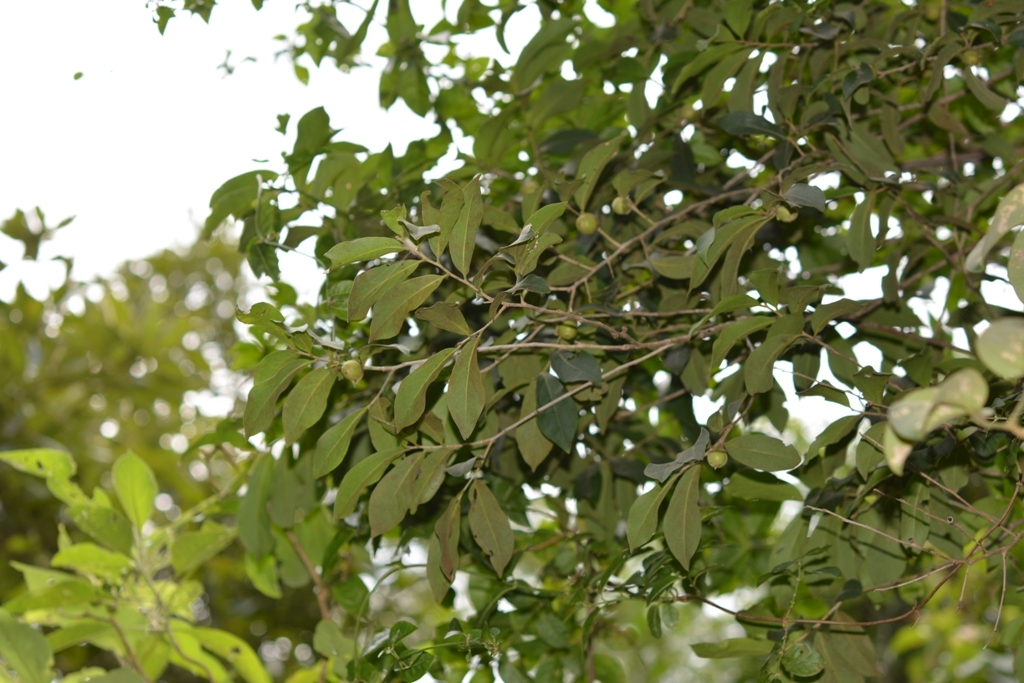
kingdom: Plantae
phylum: Tracheophyta
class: Magnoliopsida
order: Ericales
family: Ebenaceae
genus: Diospyros
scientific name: Diospyros salicifolia
